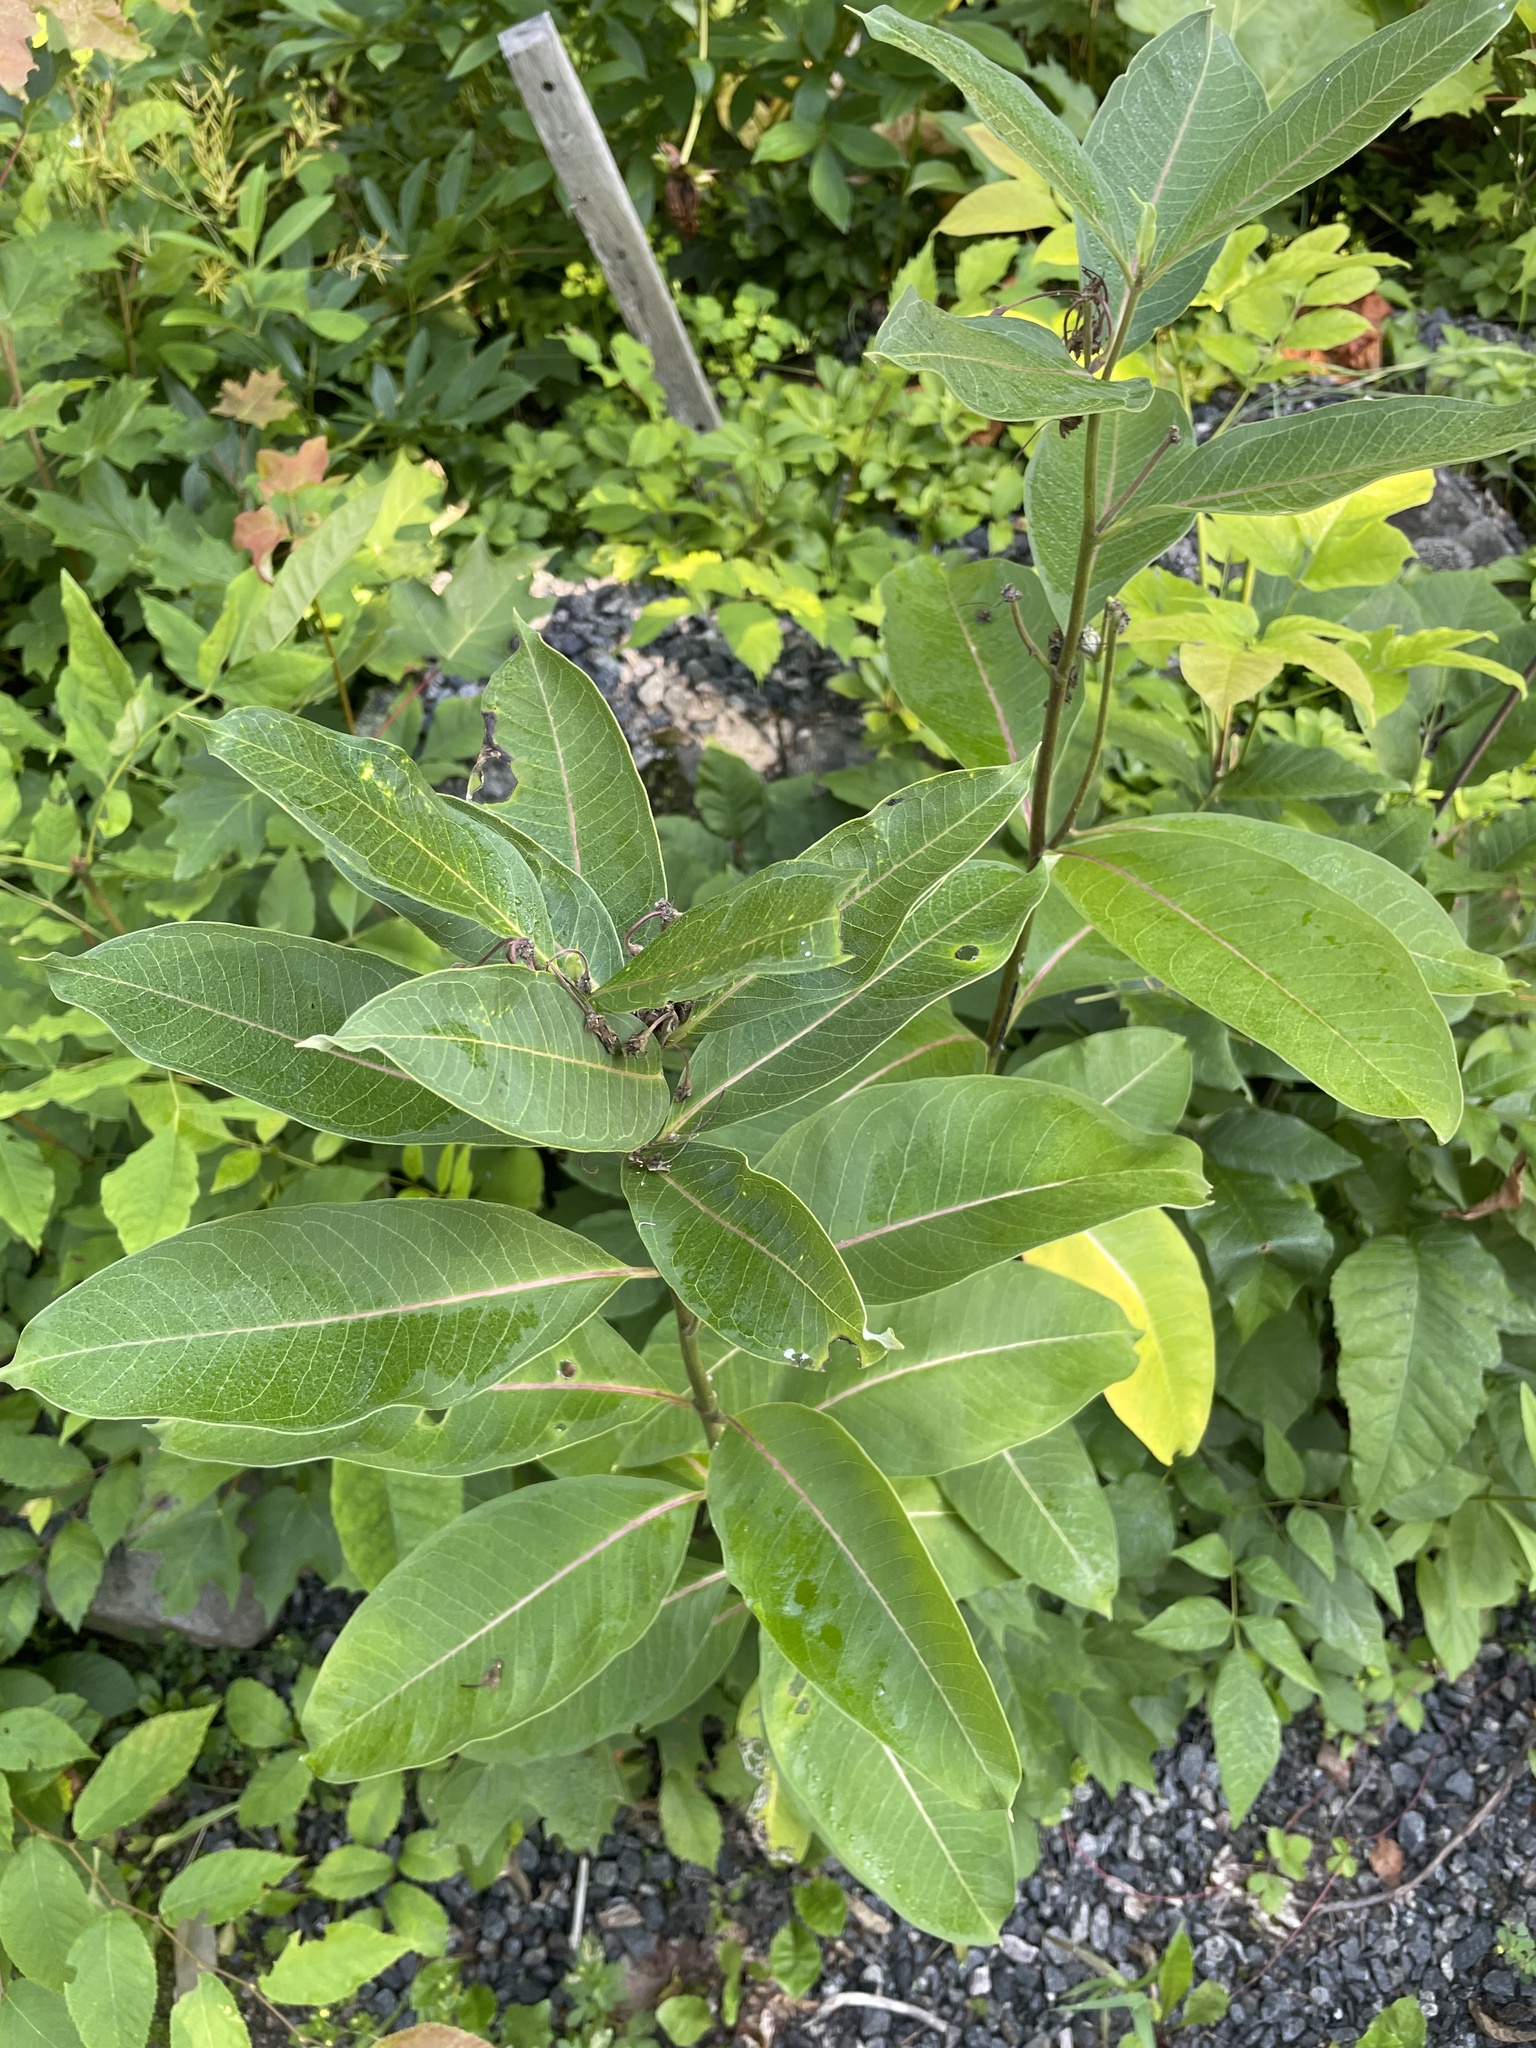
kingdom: Plantae
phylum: Tracheophyta
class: Magnoliopsida
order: Gentianales
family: Apocynaceae
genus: Asclepias
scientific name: Asclepias syriaca
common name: Common milkweed
